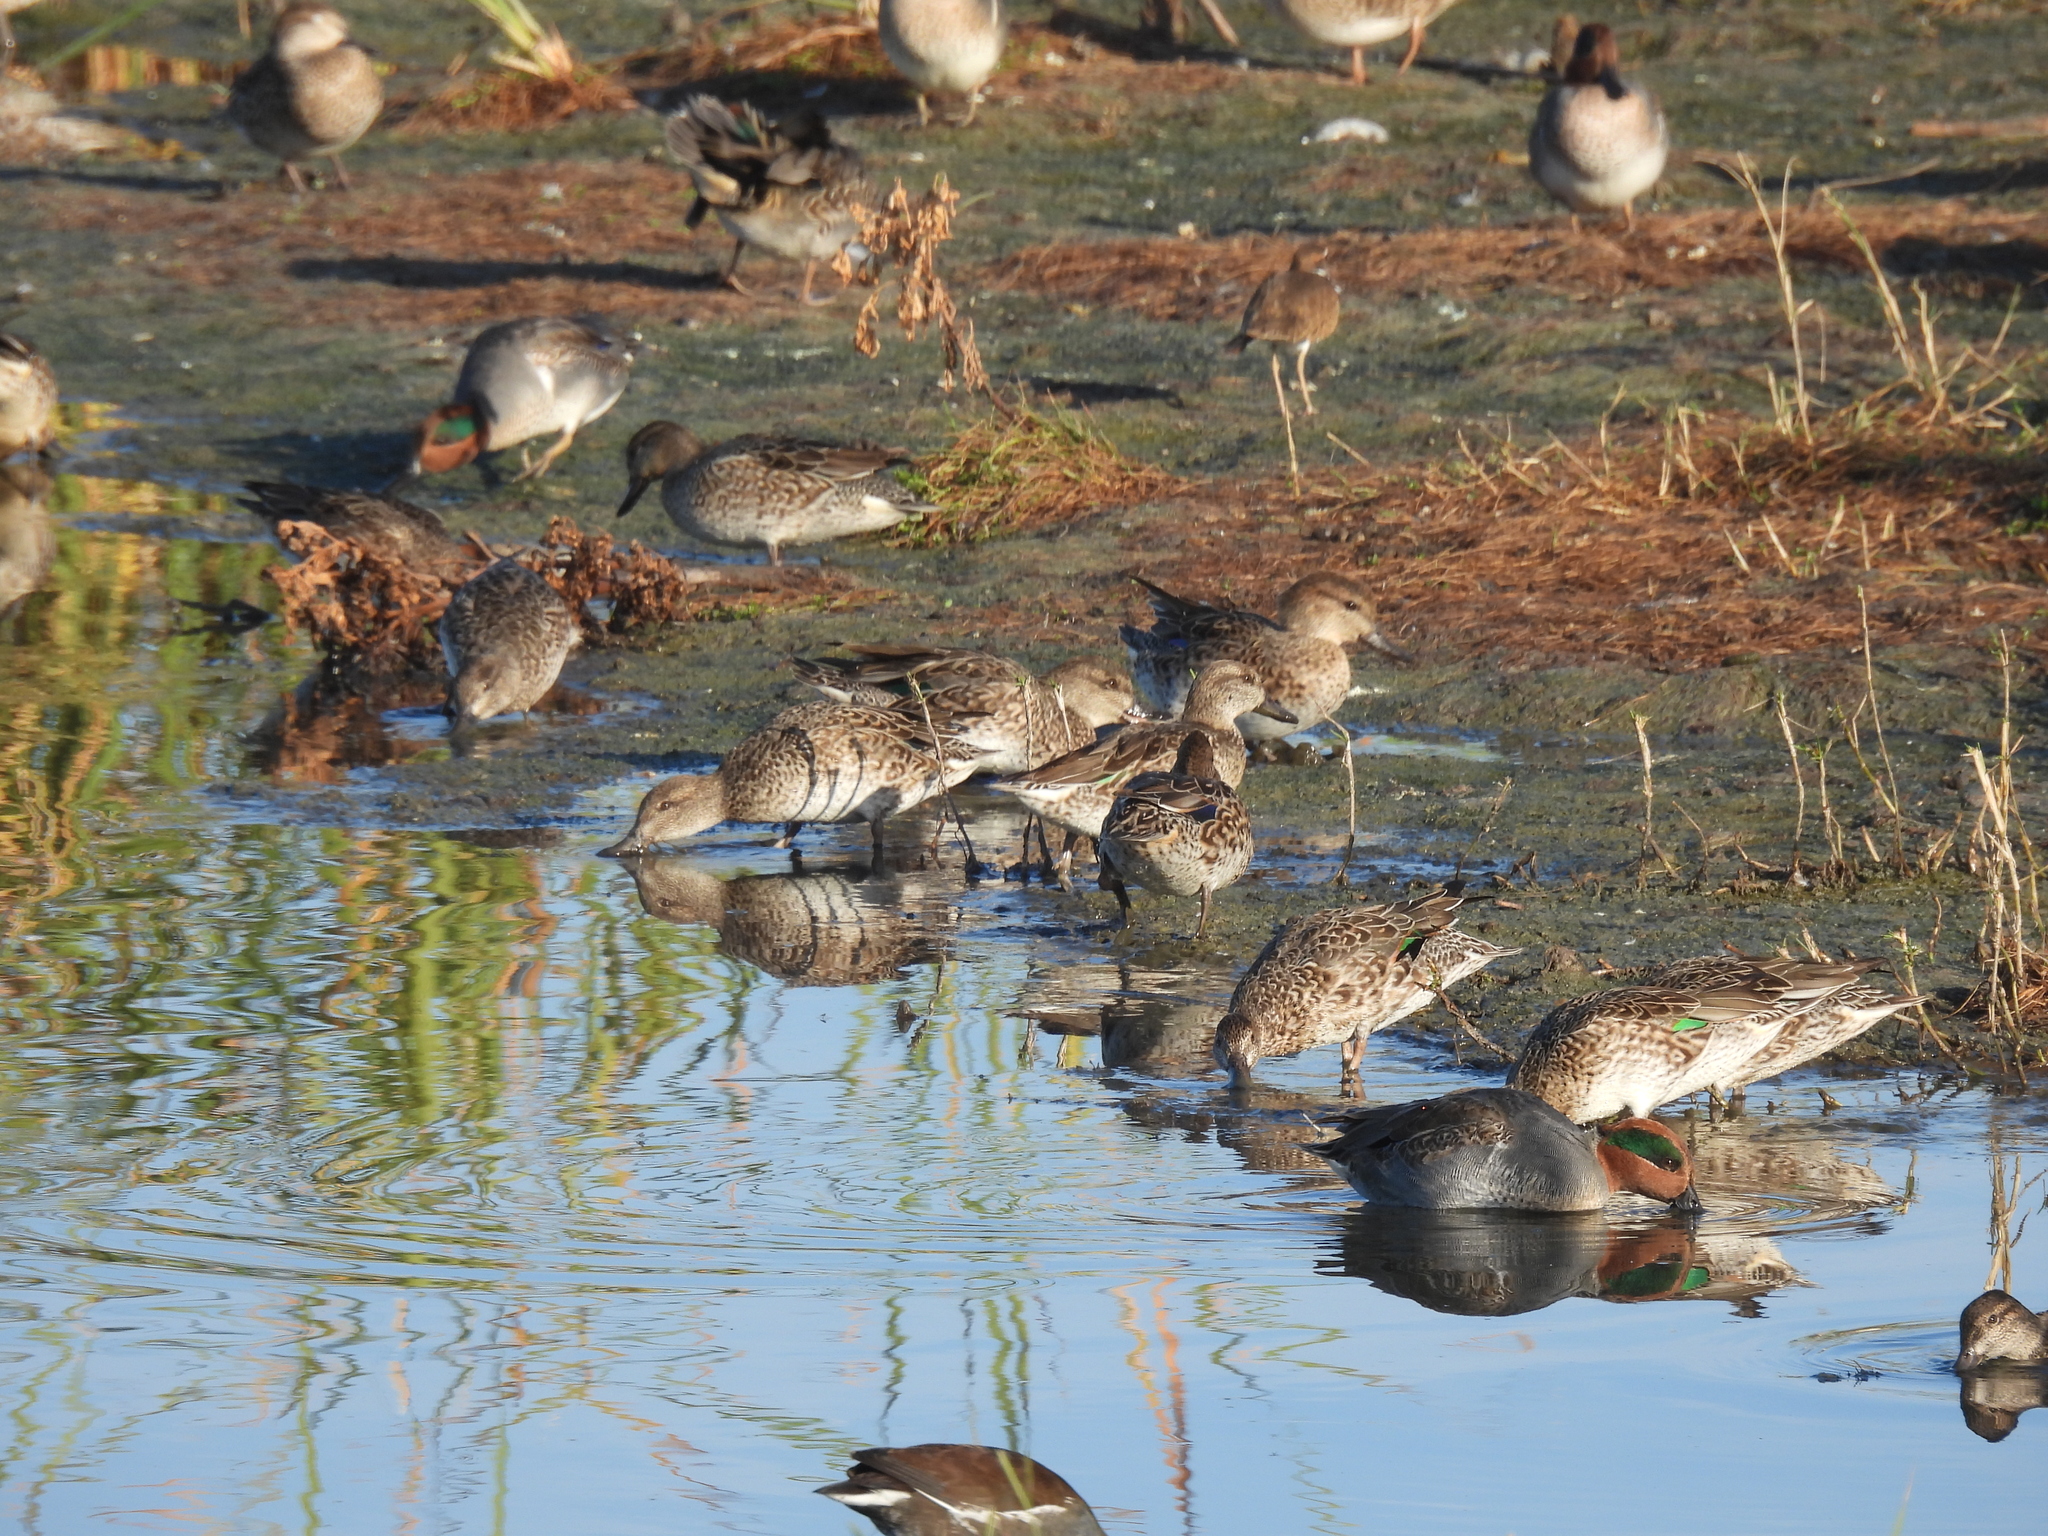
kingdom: Animalia
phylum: Chordata
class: Aves
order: Anseriformes
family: Anatidae
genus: Anas
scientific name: Anas crecca
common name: Eurasian teal
